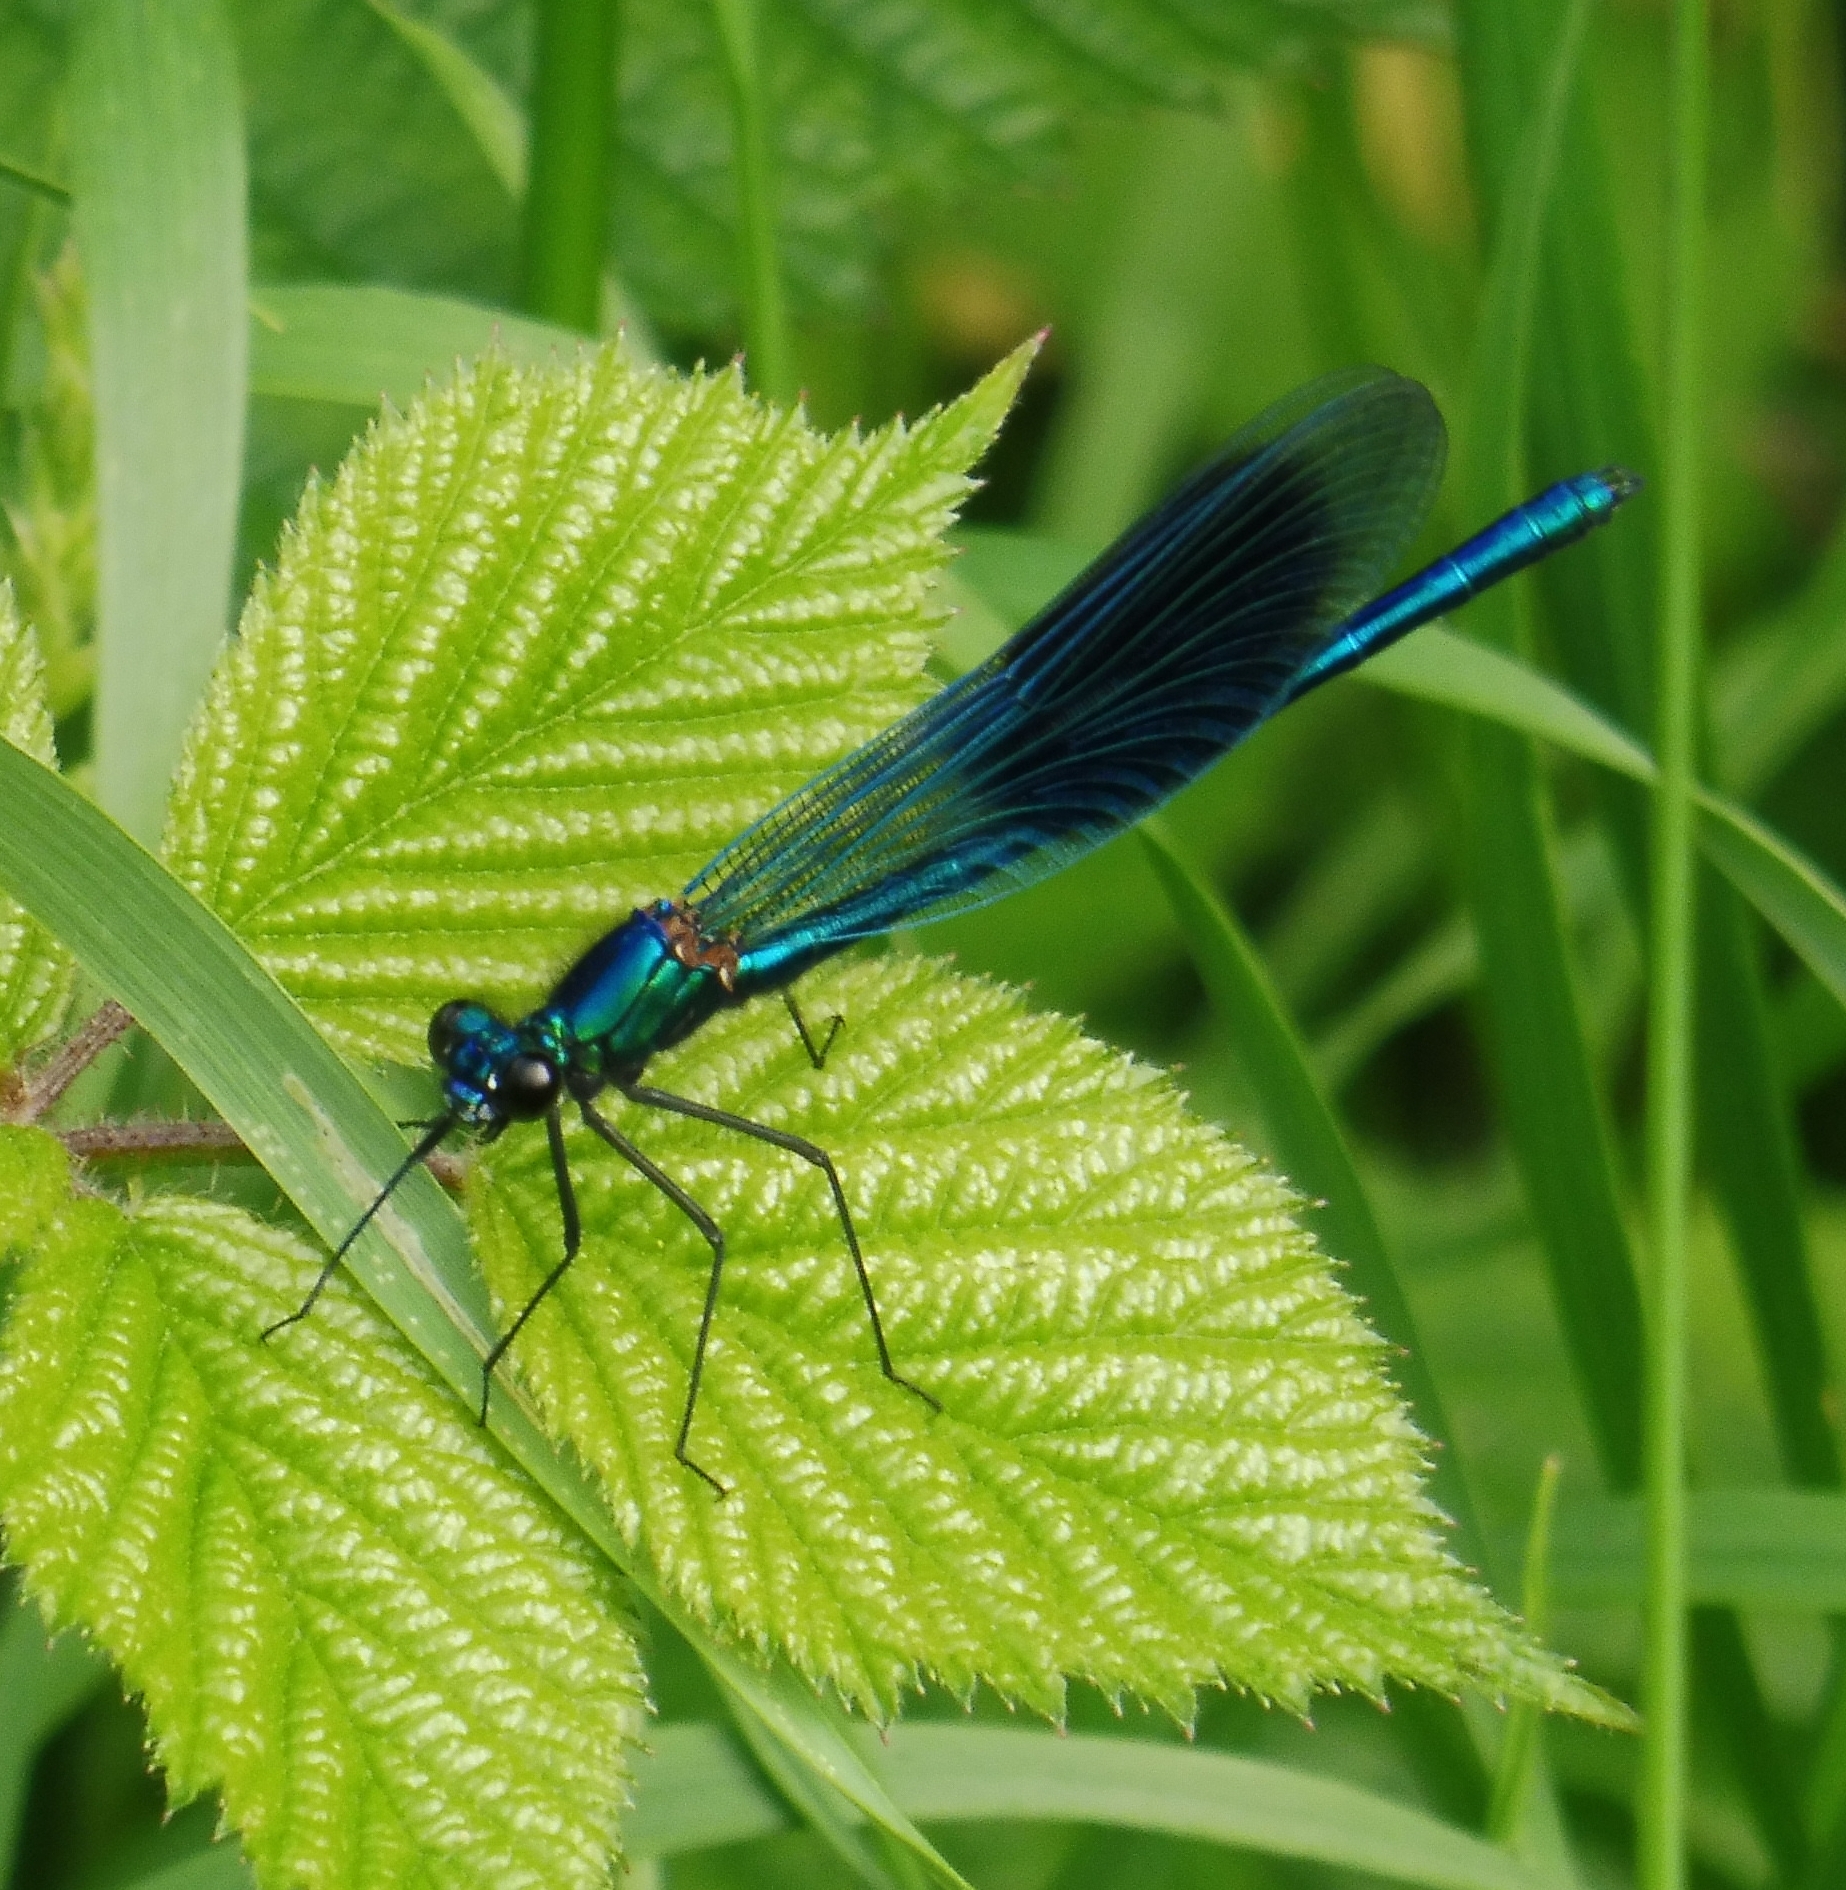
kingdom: Animalia
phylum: Arthropoda
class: Insecta
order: Odonata
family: Calopterygidae
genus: Calopteryx
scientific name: Calopteryx splendens
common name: Banded demoiselle
